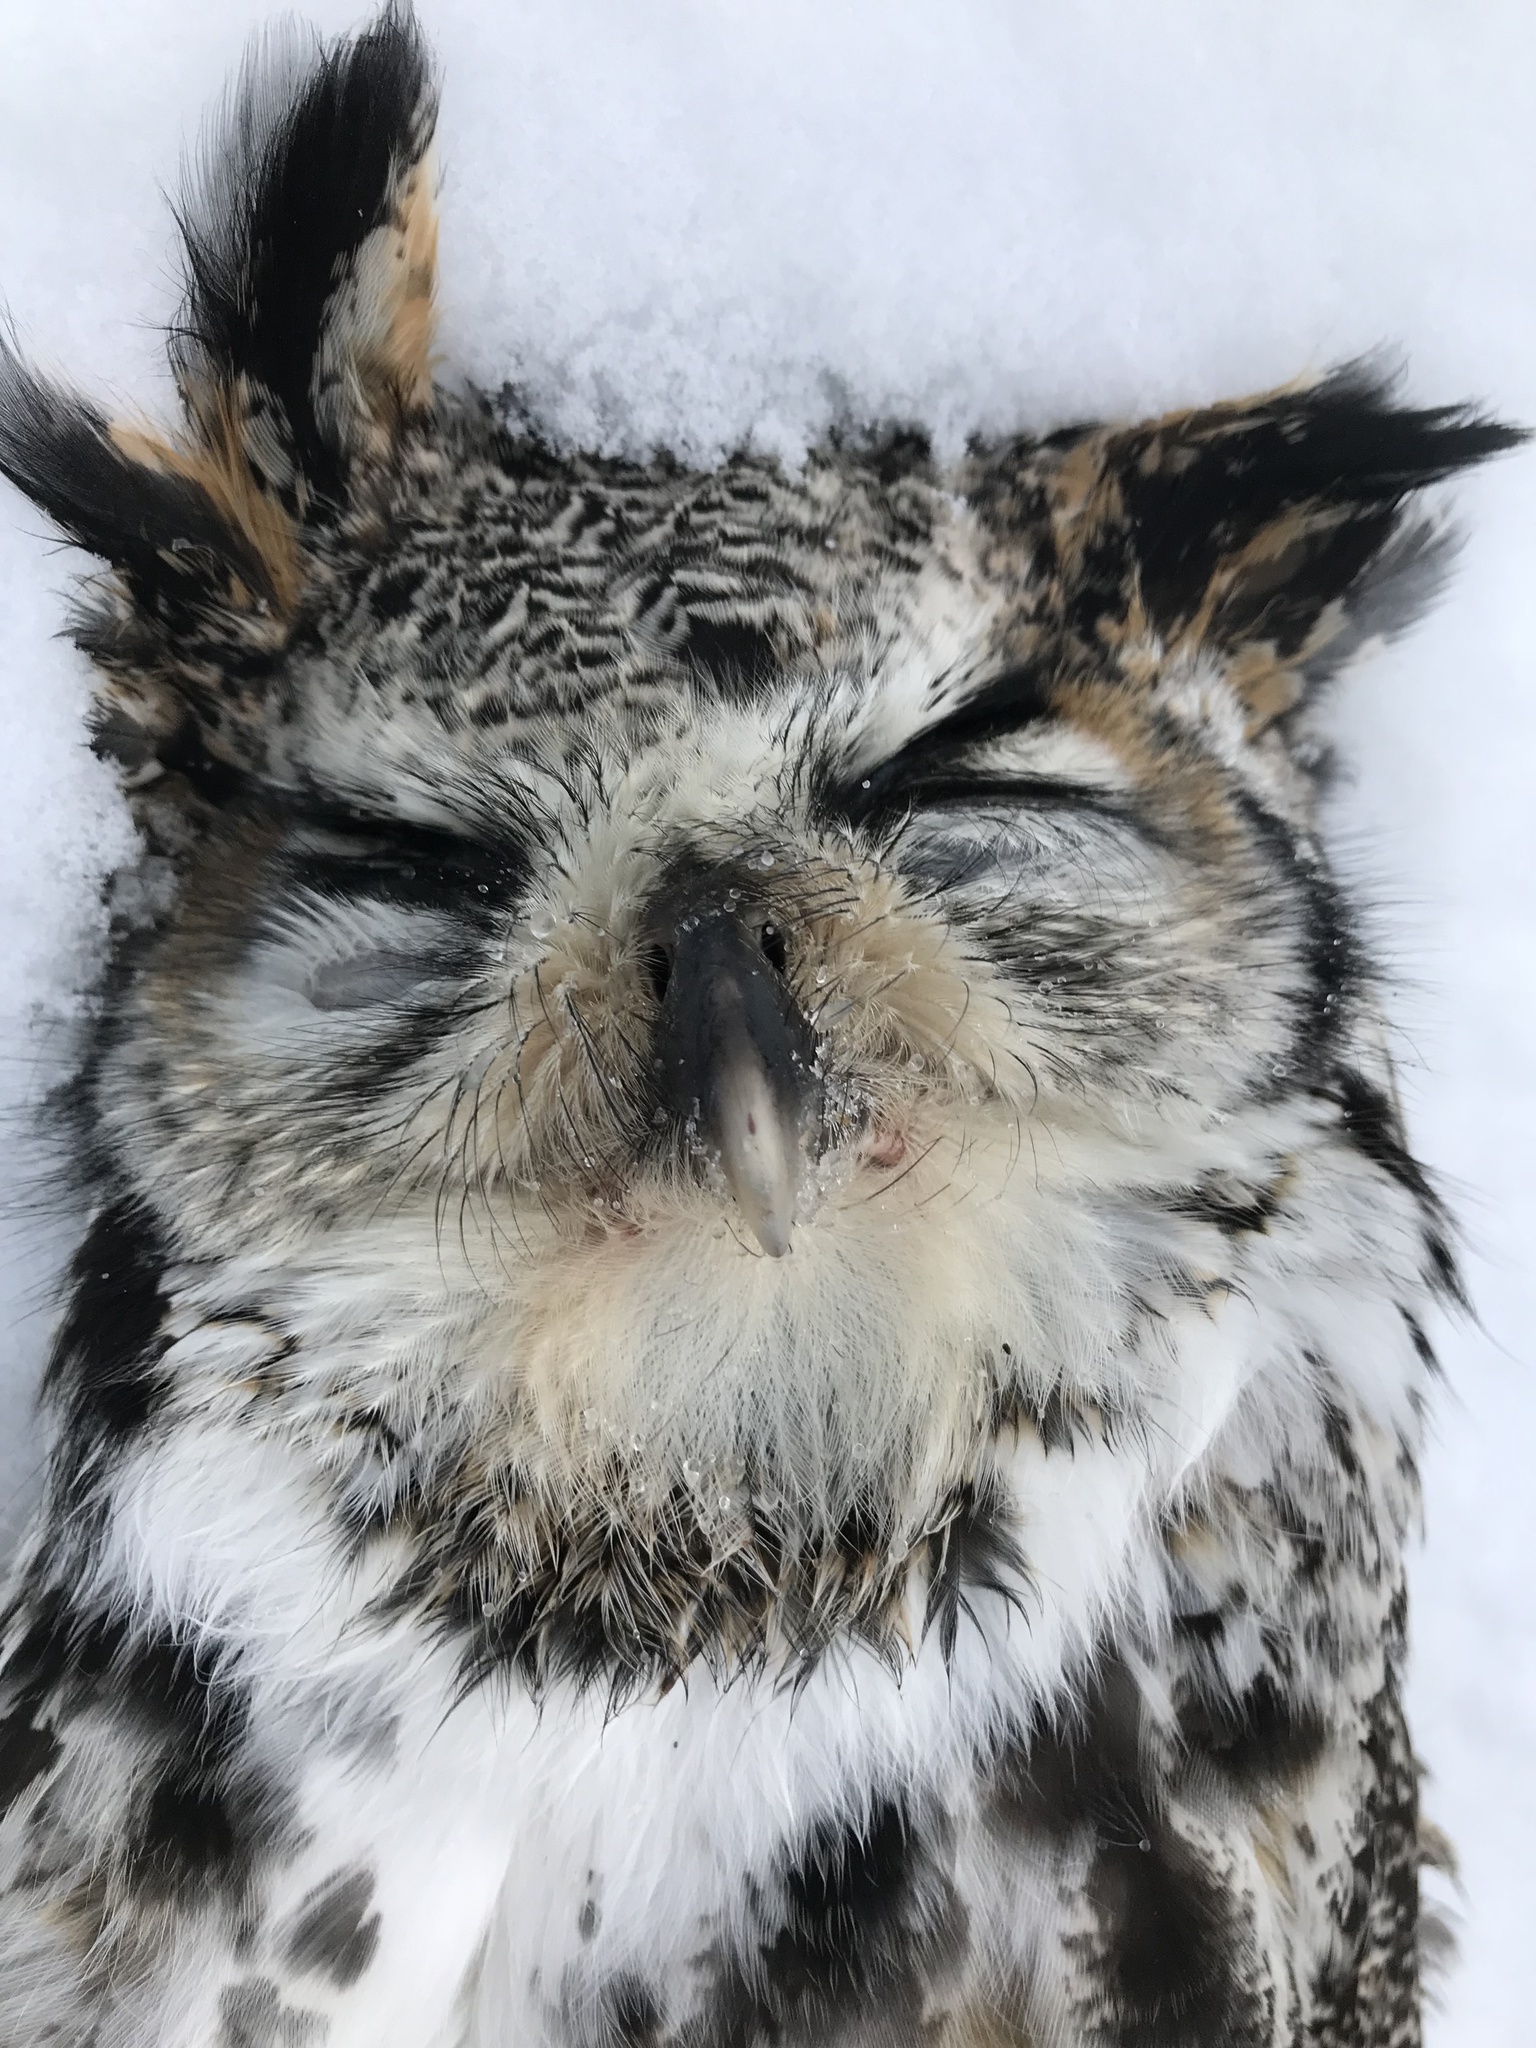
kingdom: Animalia
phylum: Chordata
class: Aves
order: Strigiformes
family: Strigidae
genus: Bubo
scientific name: Bubo virginianus
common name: Great horned owl
